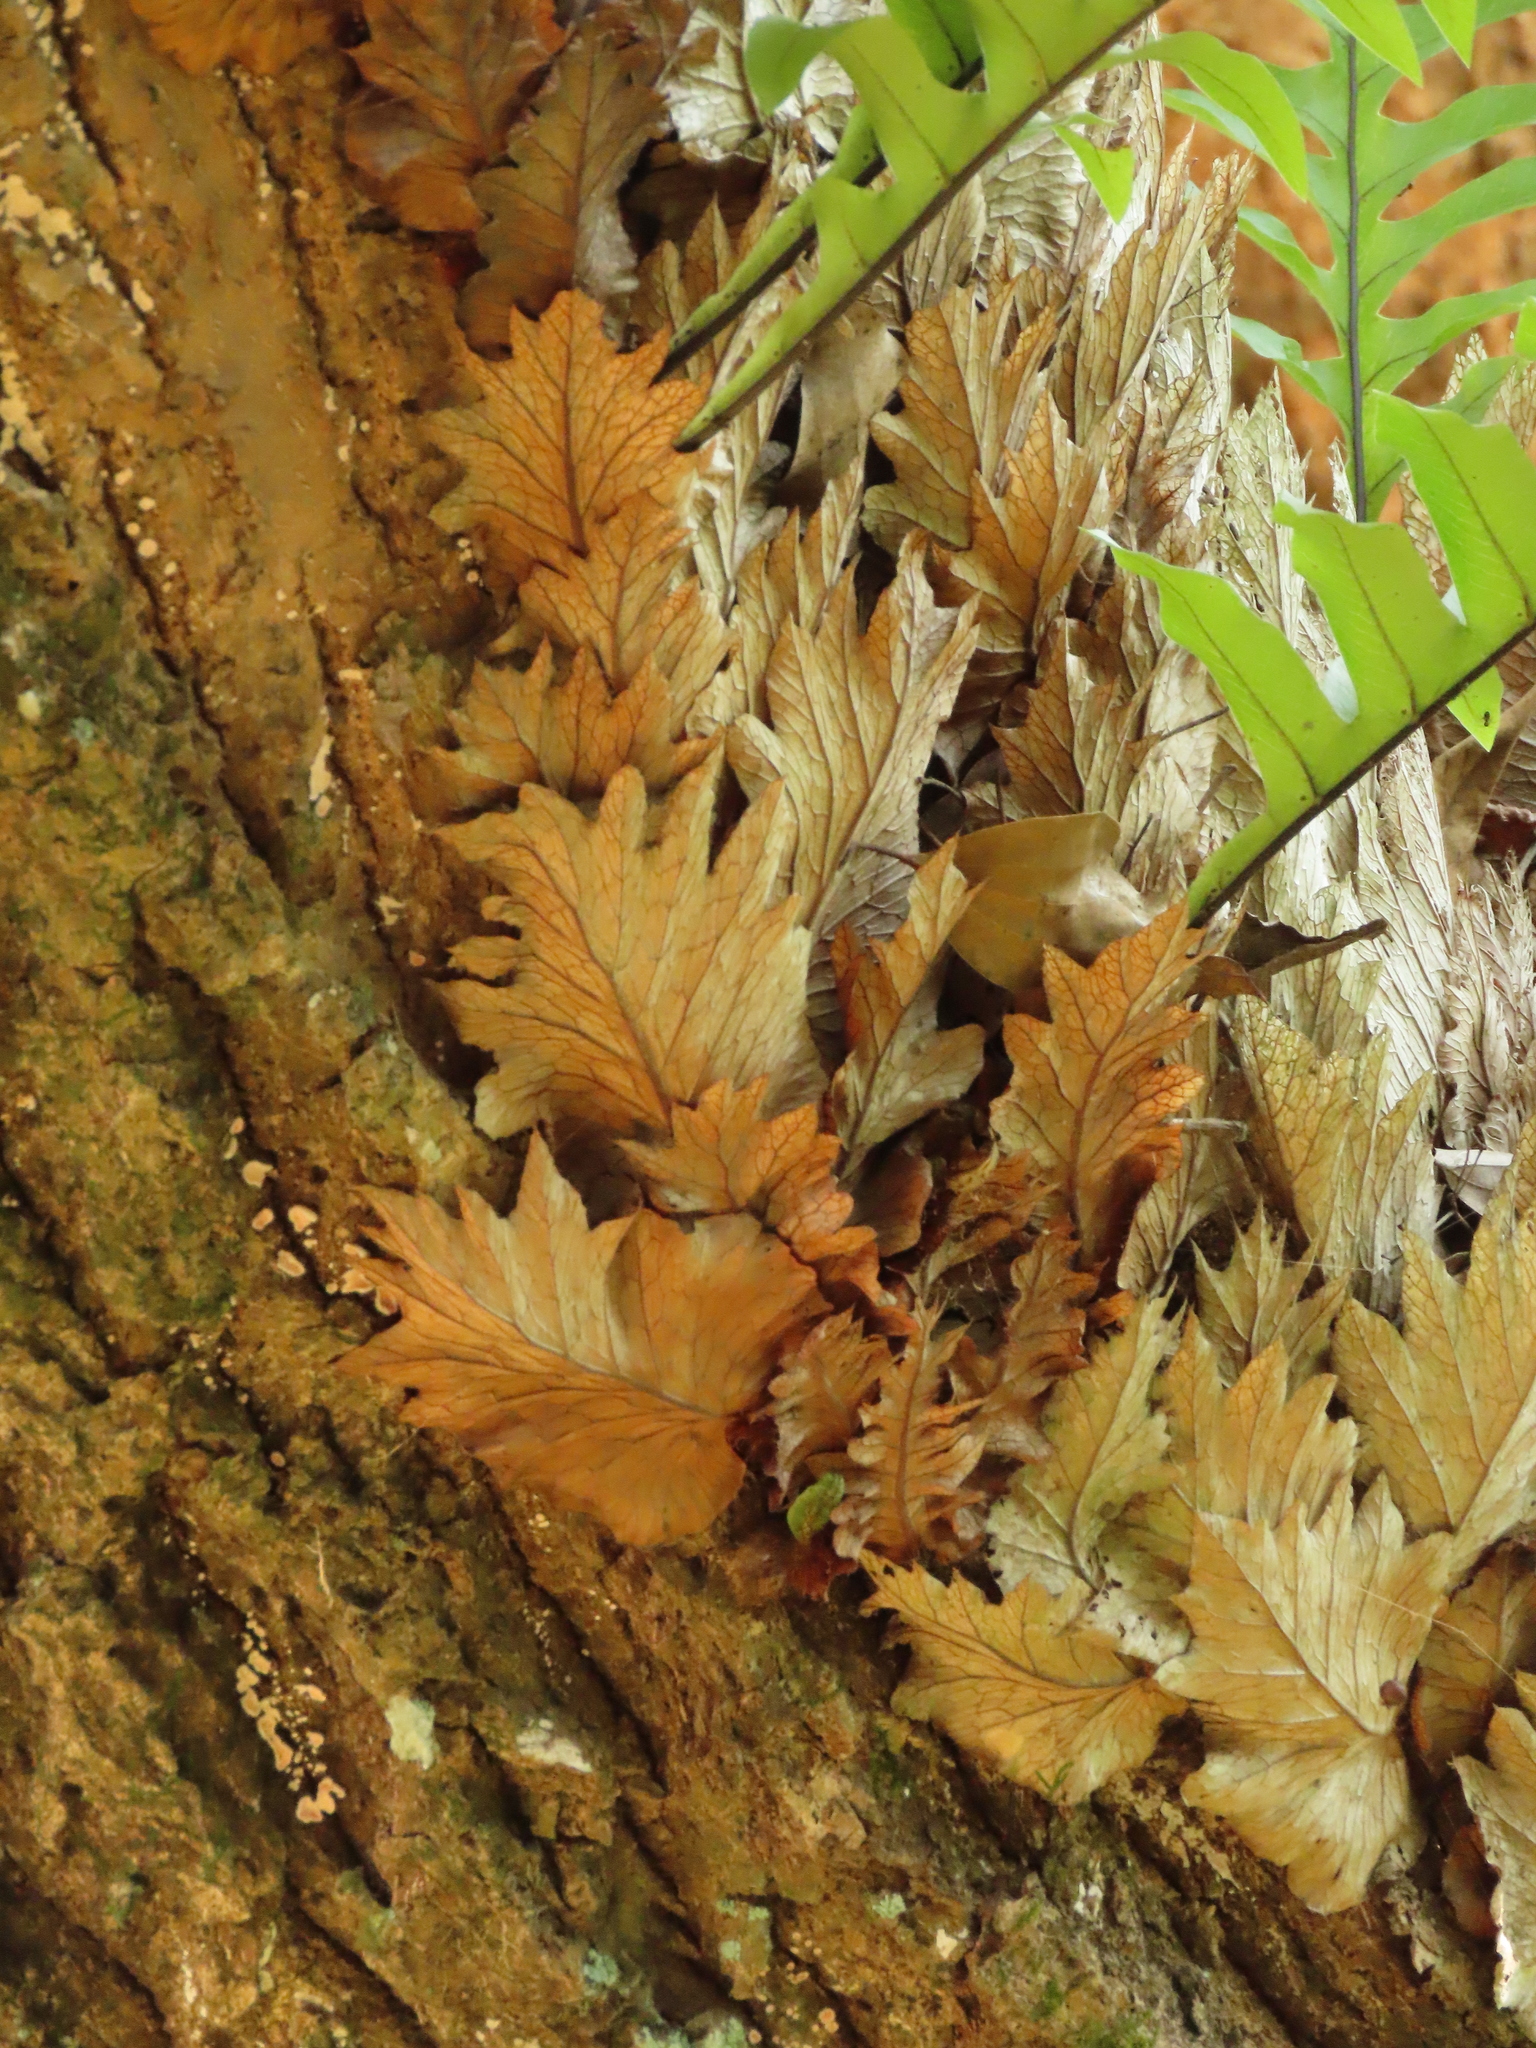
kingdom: Plantae
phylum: Tracheophyta
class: Polypodiopsida
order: Polypodiales
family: Polypodiaceae
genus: Drynaria
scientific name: Drynaria roosii
